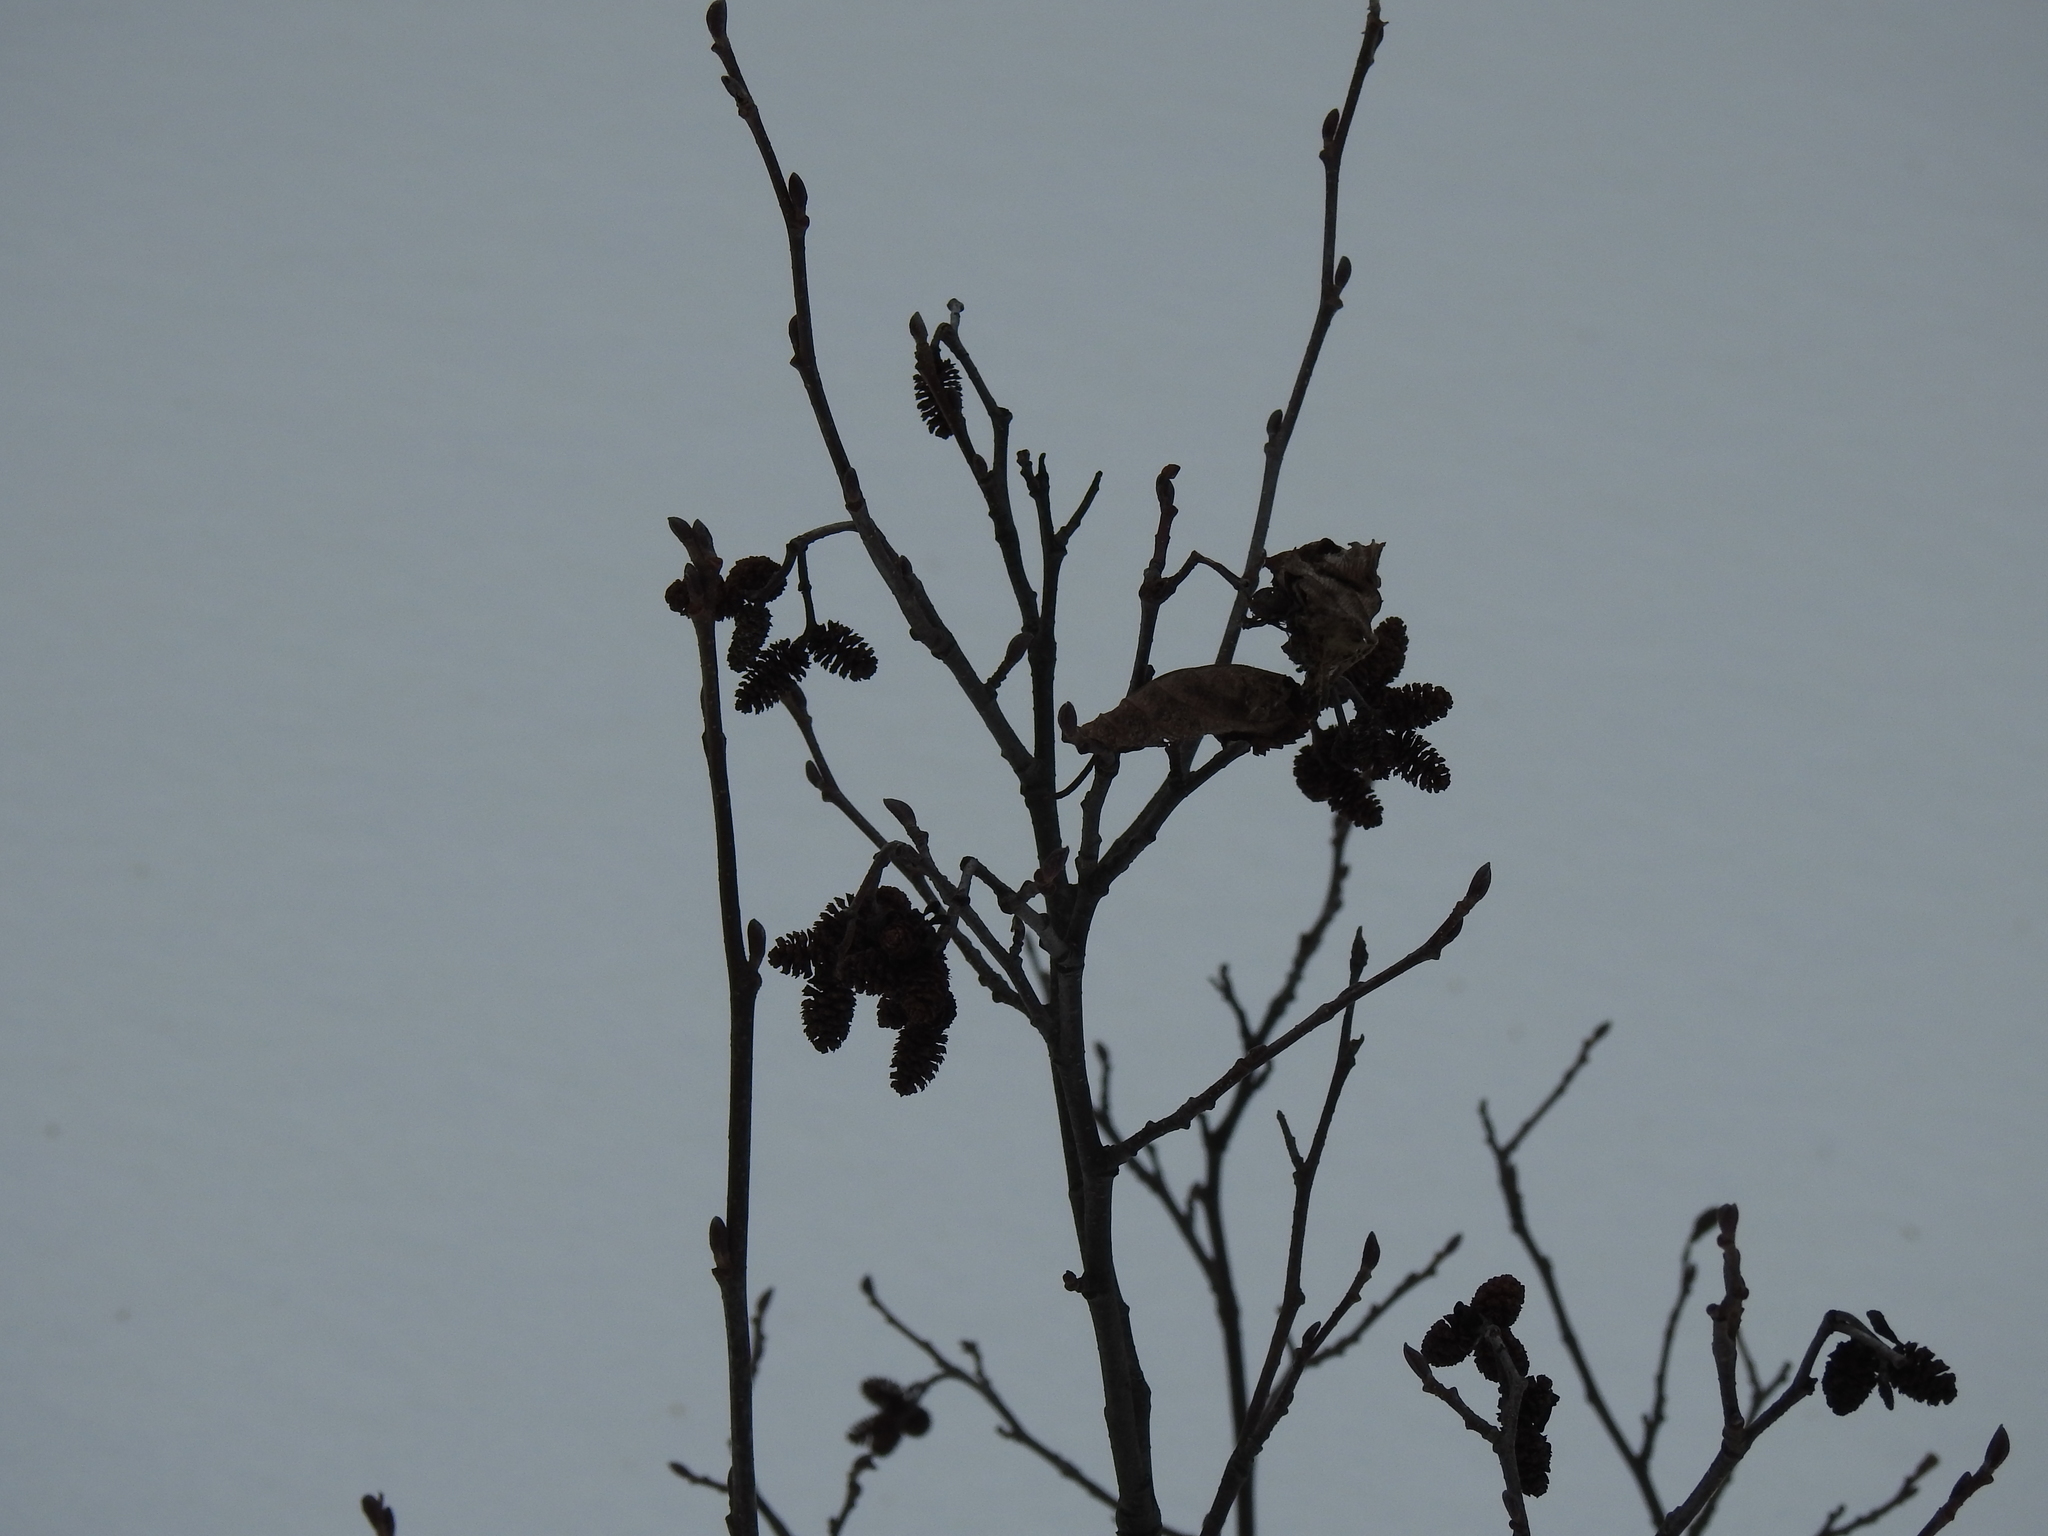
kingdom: Plantae
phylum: Tracheophyta
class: Magnoliopsida
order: Fagales
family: Betulaceae
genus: Alnus
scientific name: Alnus incana
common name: Grey alder
